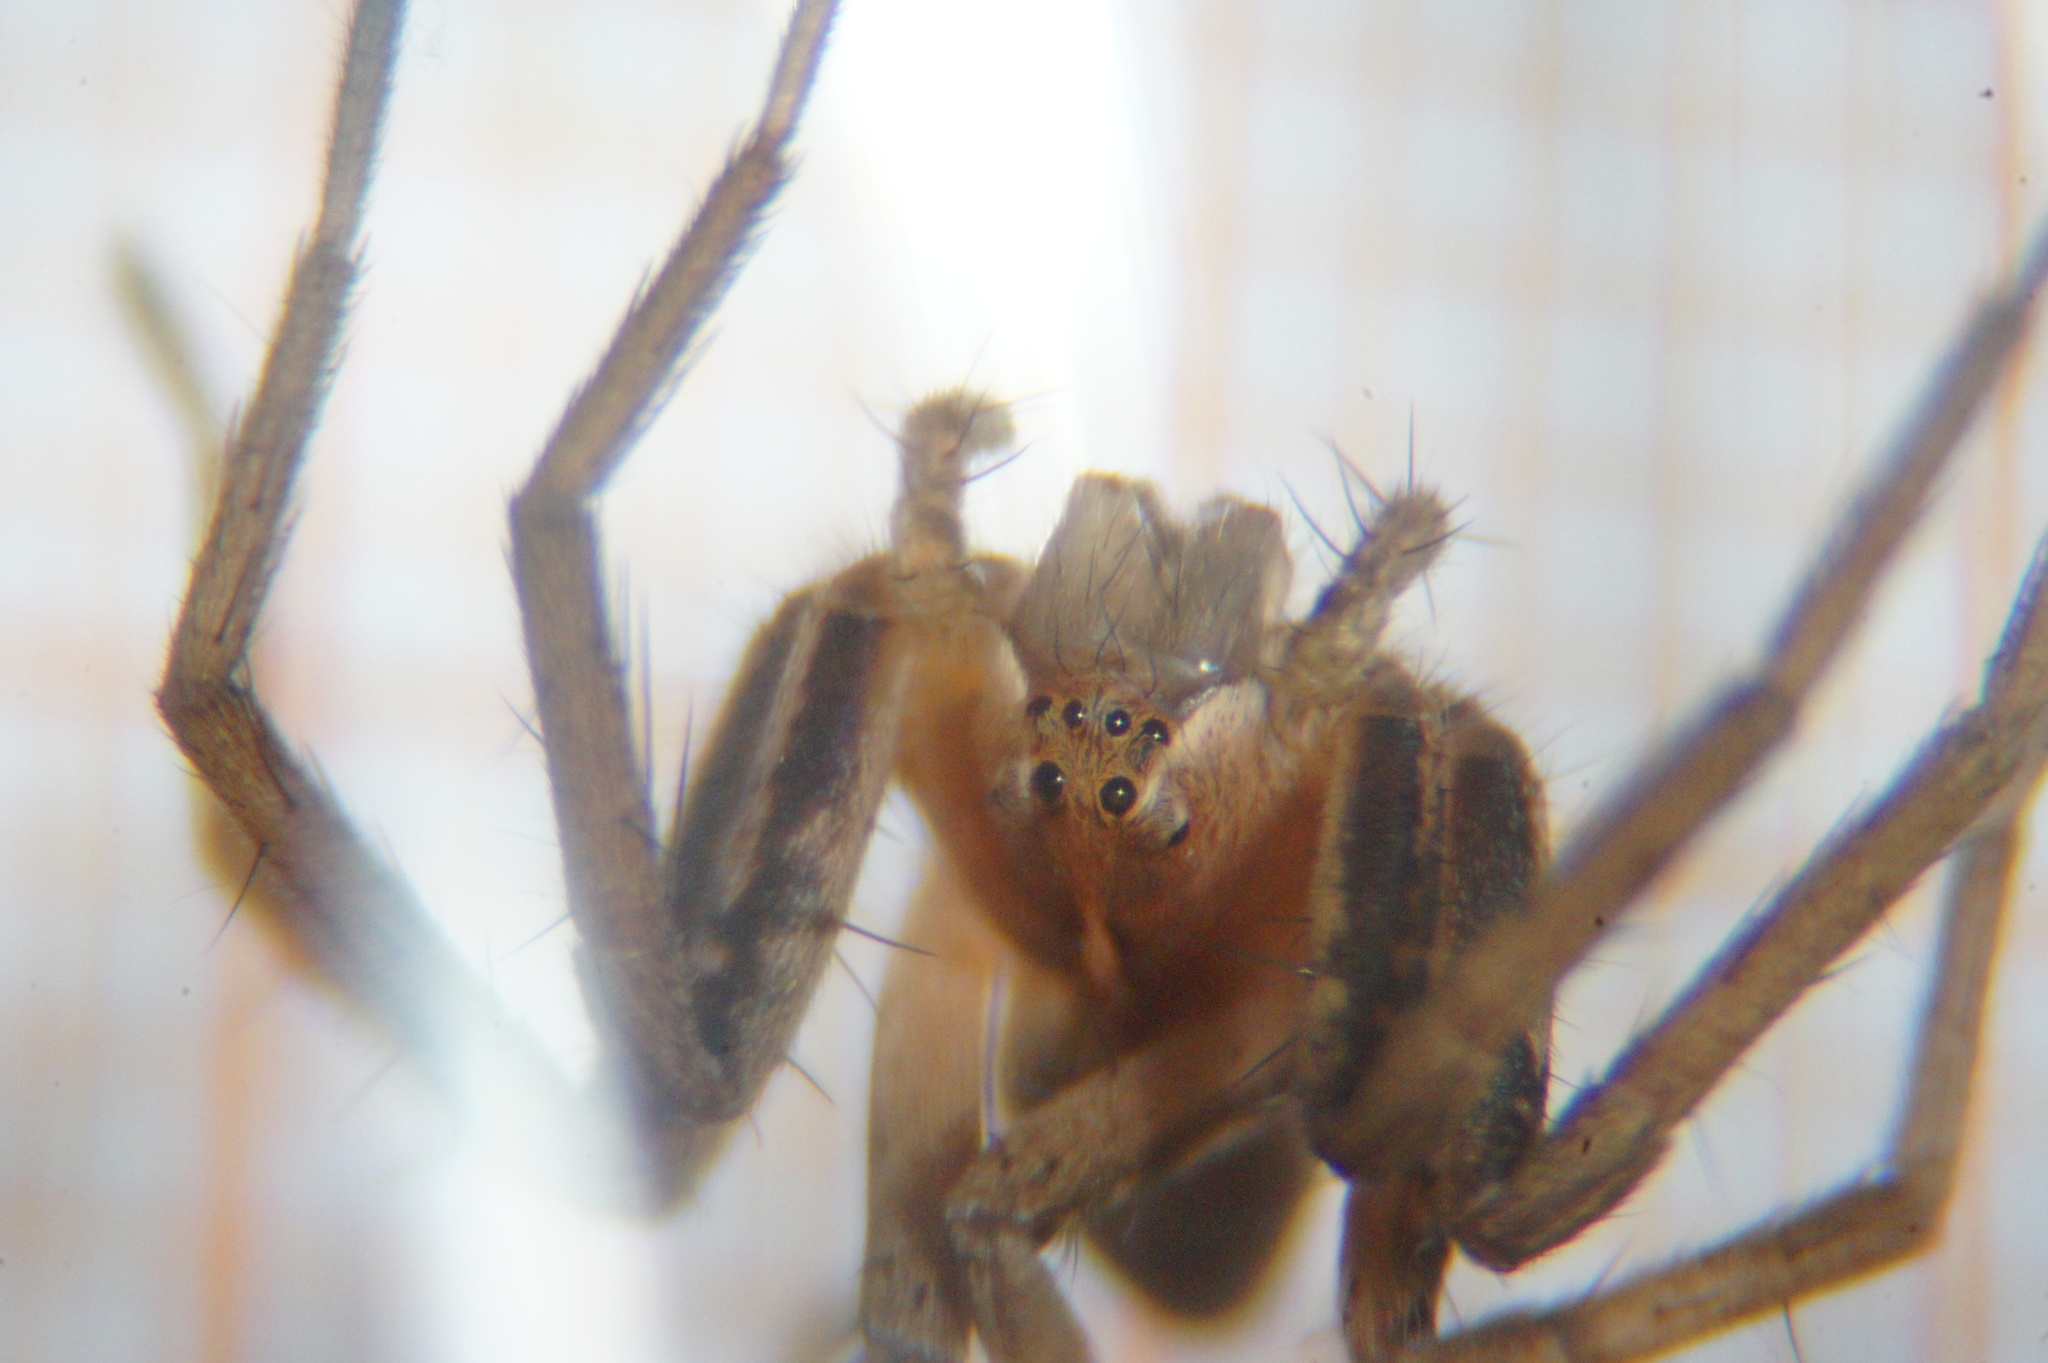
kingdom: Animalia
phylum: Arthropoda
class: Arachnida
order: Araneae
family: Pisauridae
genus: Pisaura
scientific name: Pisaura mirabilis
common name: Tent spider
